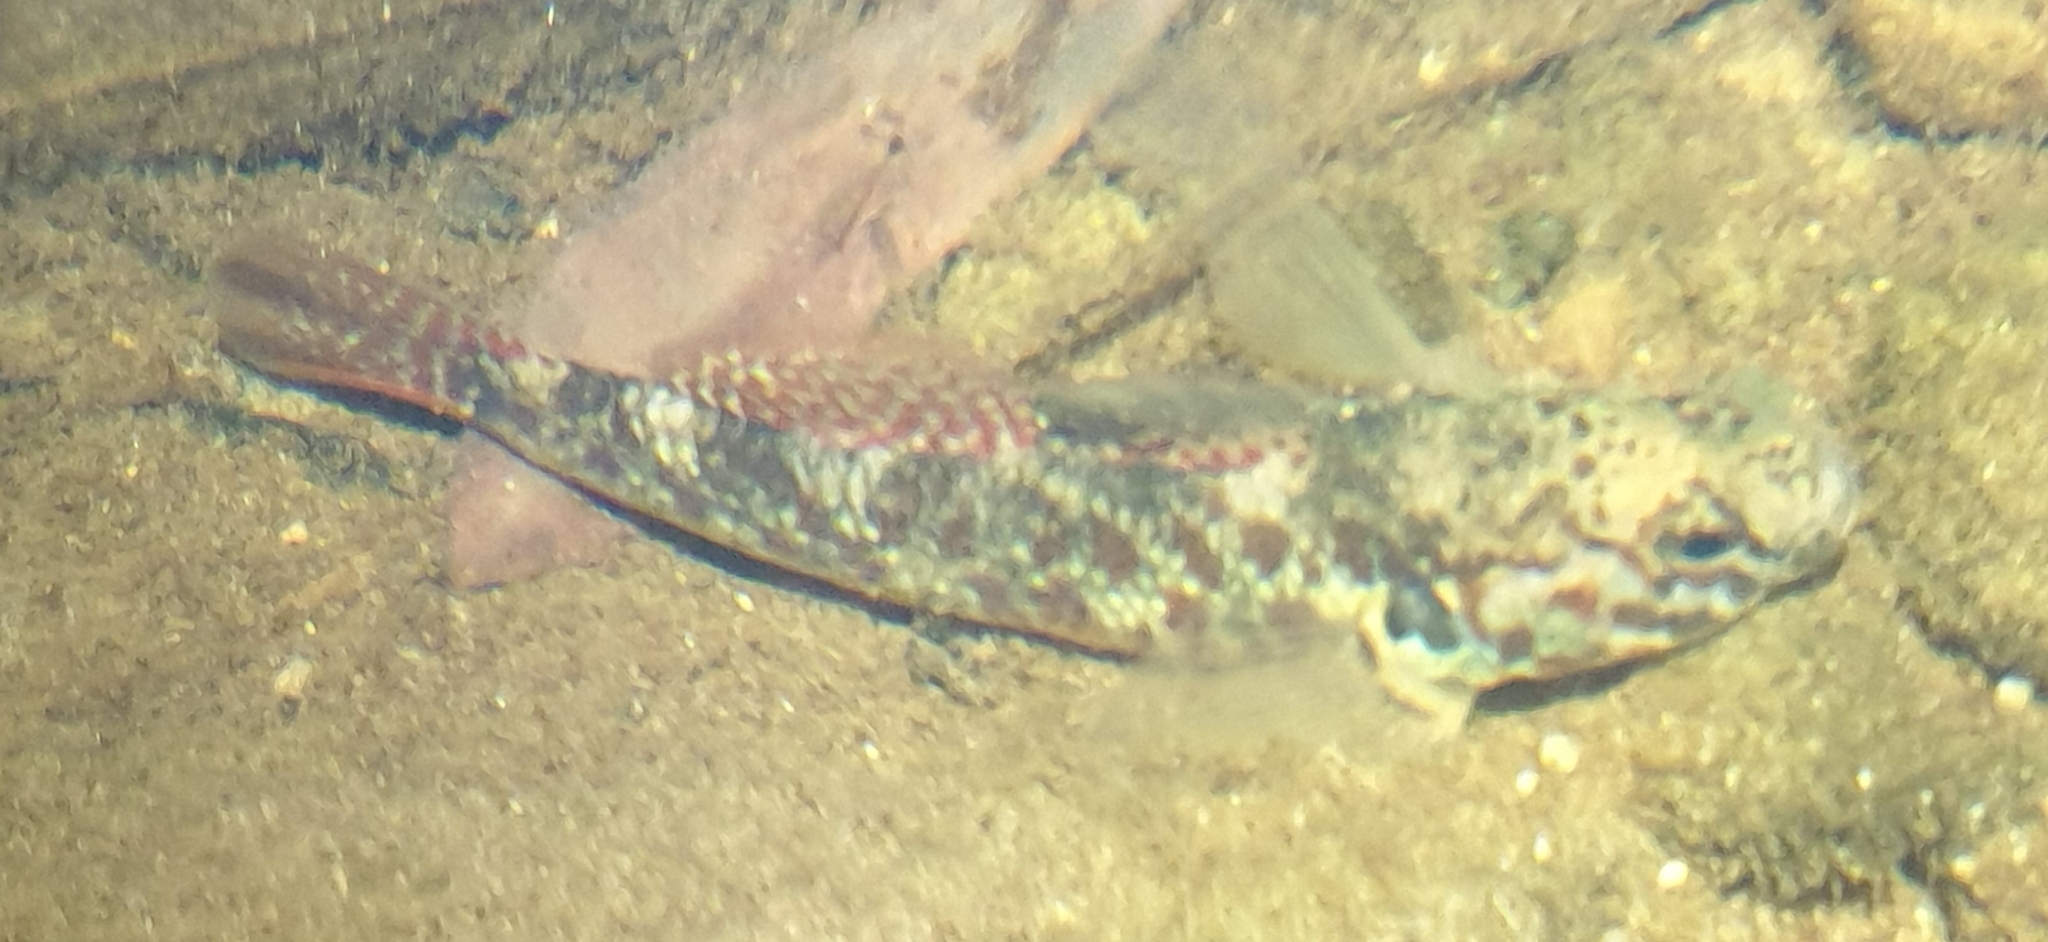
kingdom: Animalia
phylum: Chordata
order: Perciformes
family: Eleotridae
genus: Gobiomorphus
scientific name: Gobiomorphus huttoni
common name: Redfin bully
